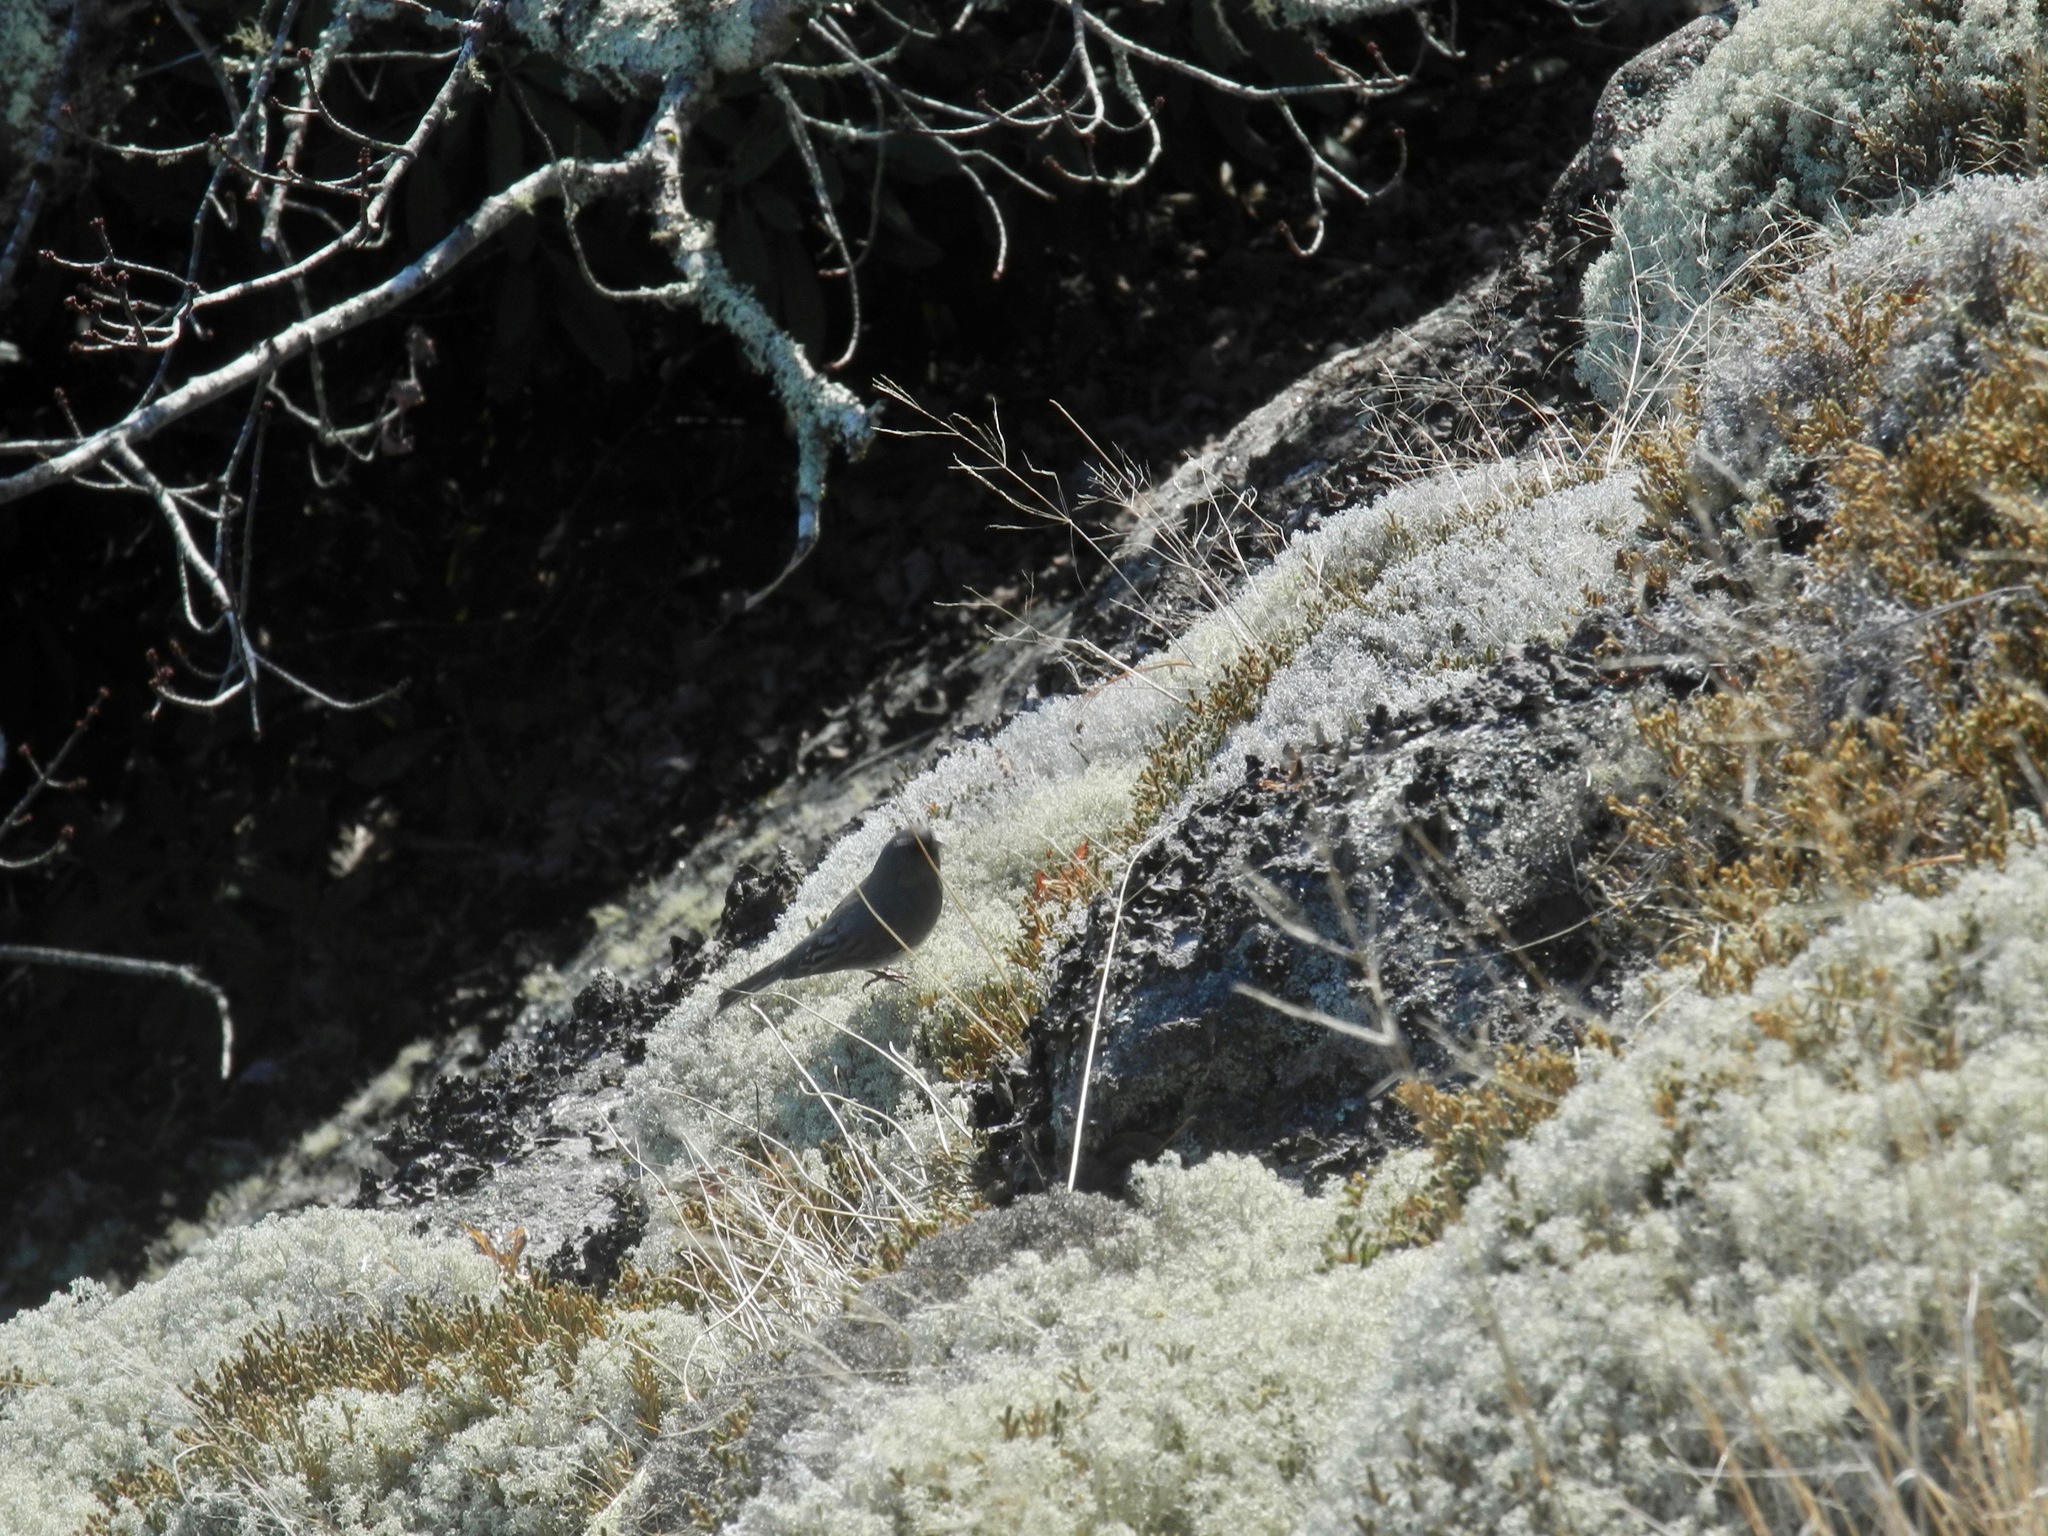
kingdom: Animalia
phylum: Chordata
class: Aves
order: Passeriformes
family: Passerellidae
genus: Junco
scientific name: Junco hyemalis
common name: Dark-eyed junco
